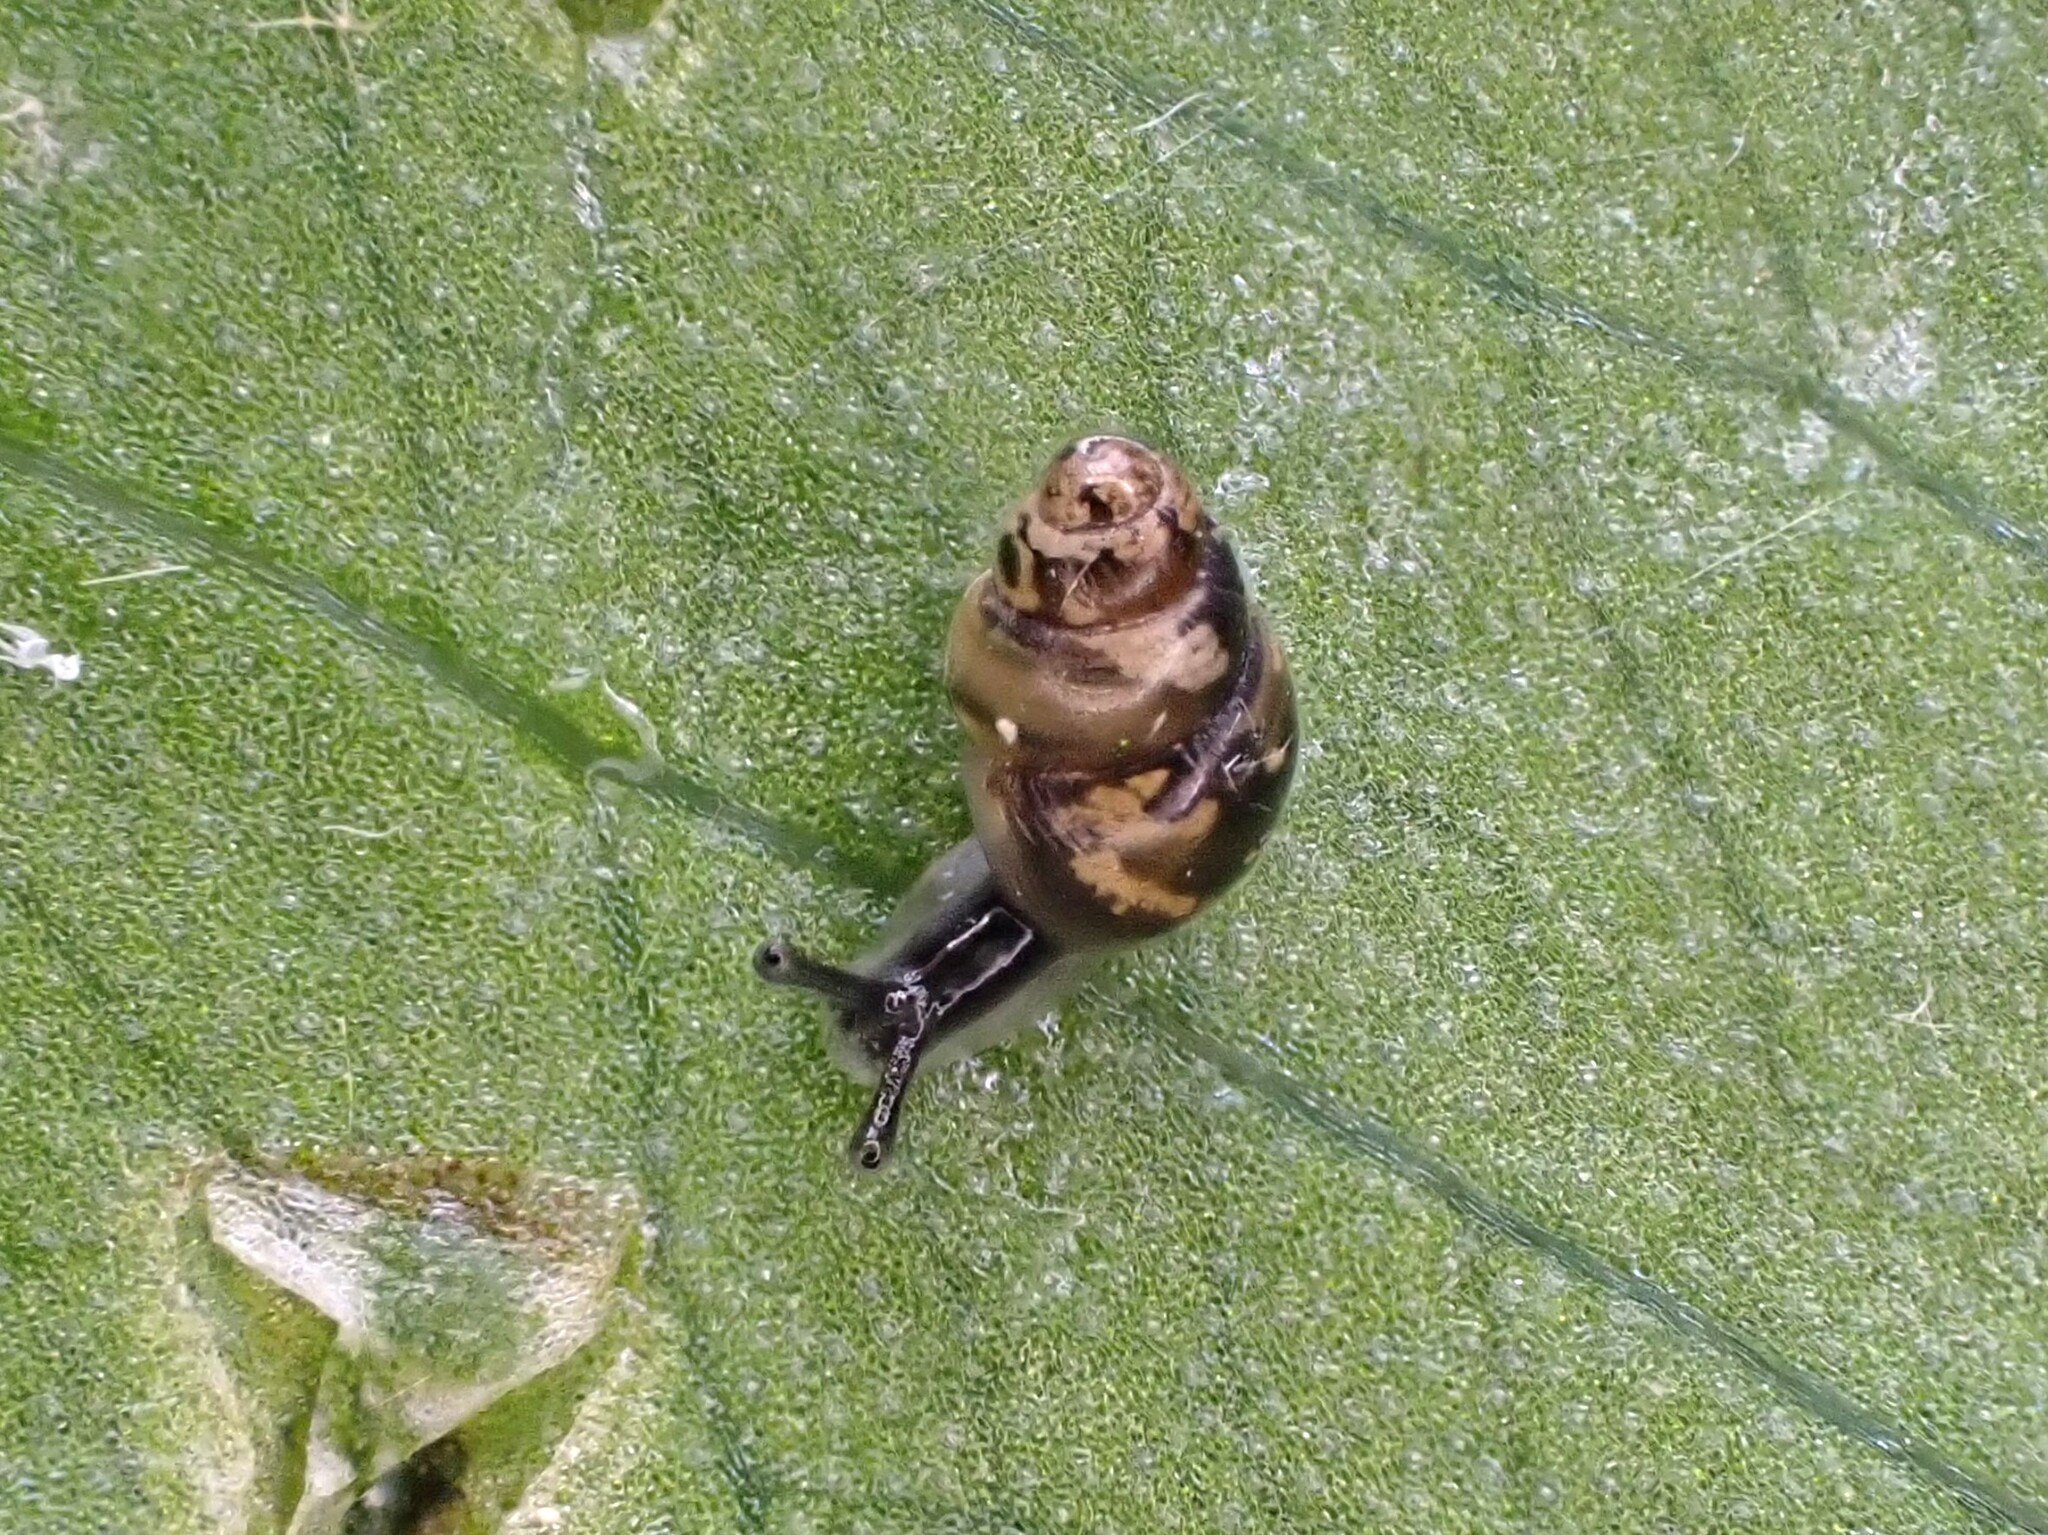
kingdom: Animalia
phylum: Mollusca
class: Gastropoda
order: Stylommatophora
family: Achatinellidae
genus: Tornatellinops
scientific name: Tornatellinops novoseelandicus
